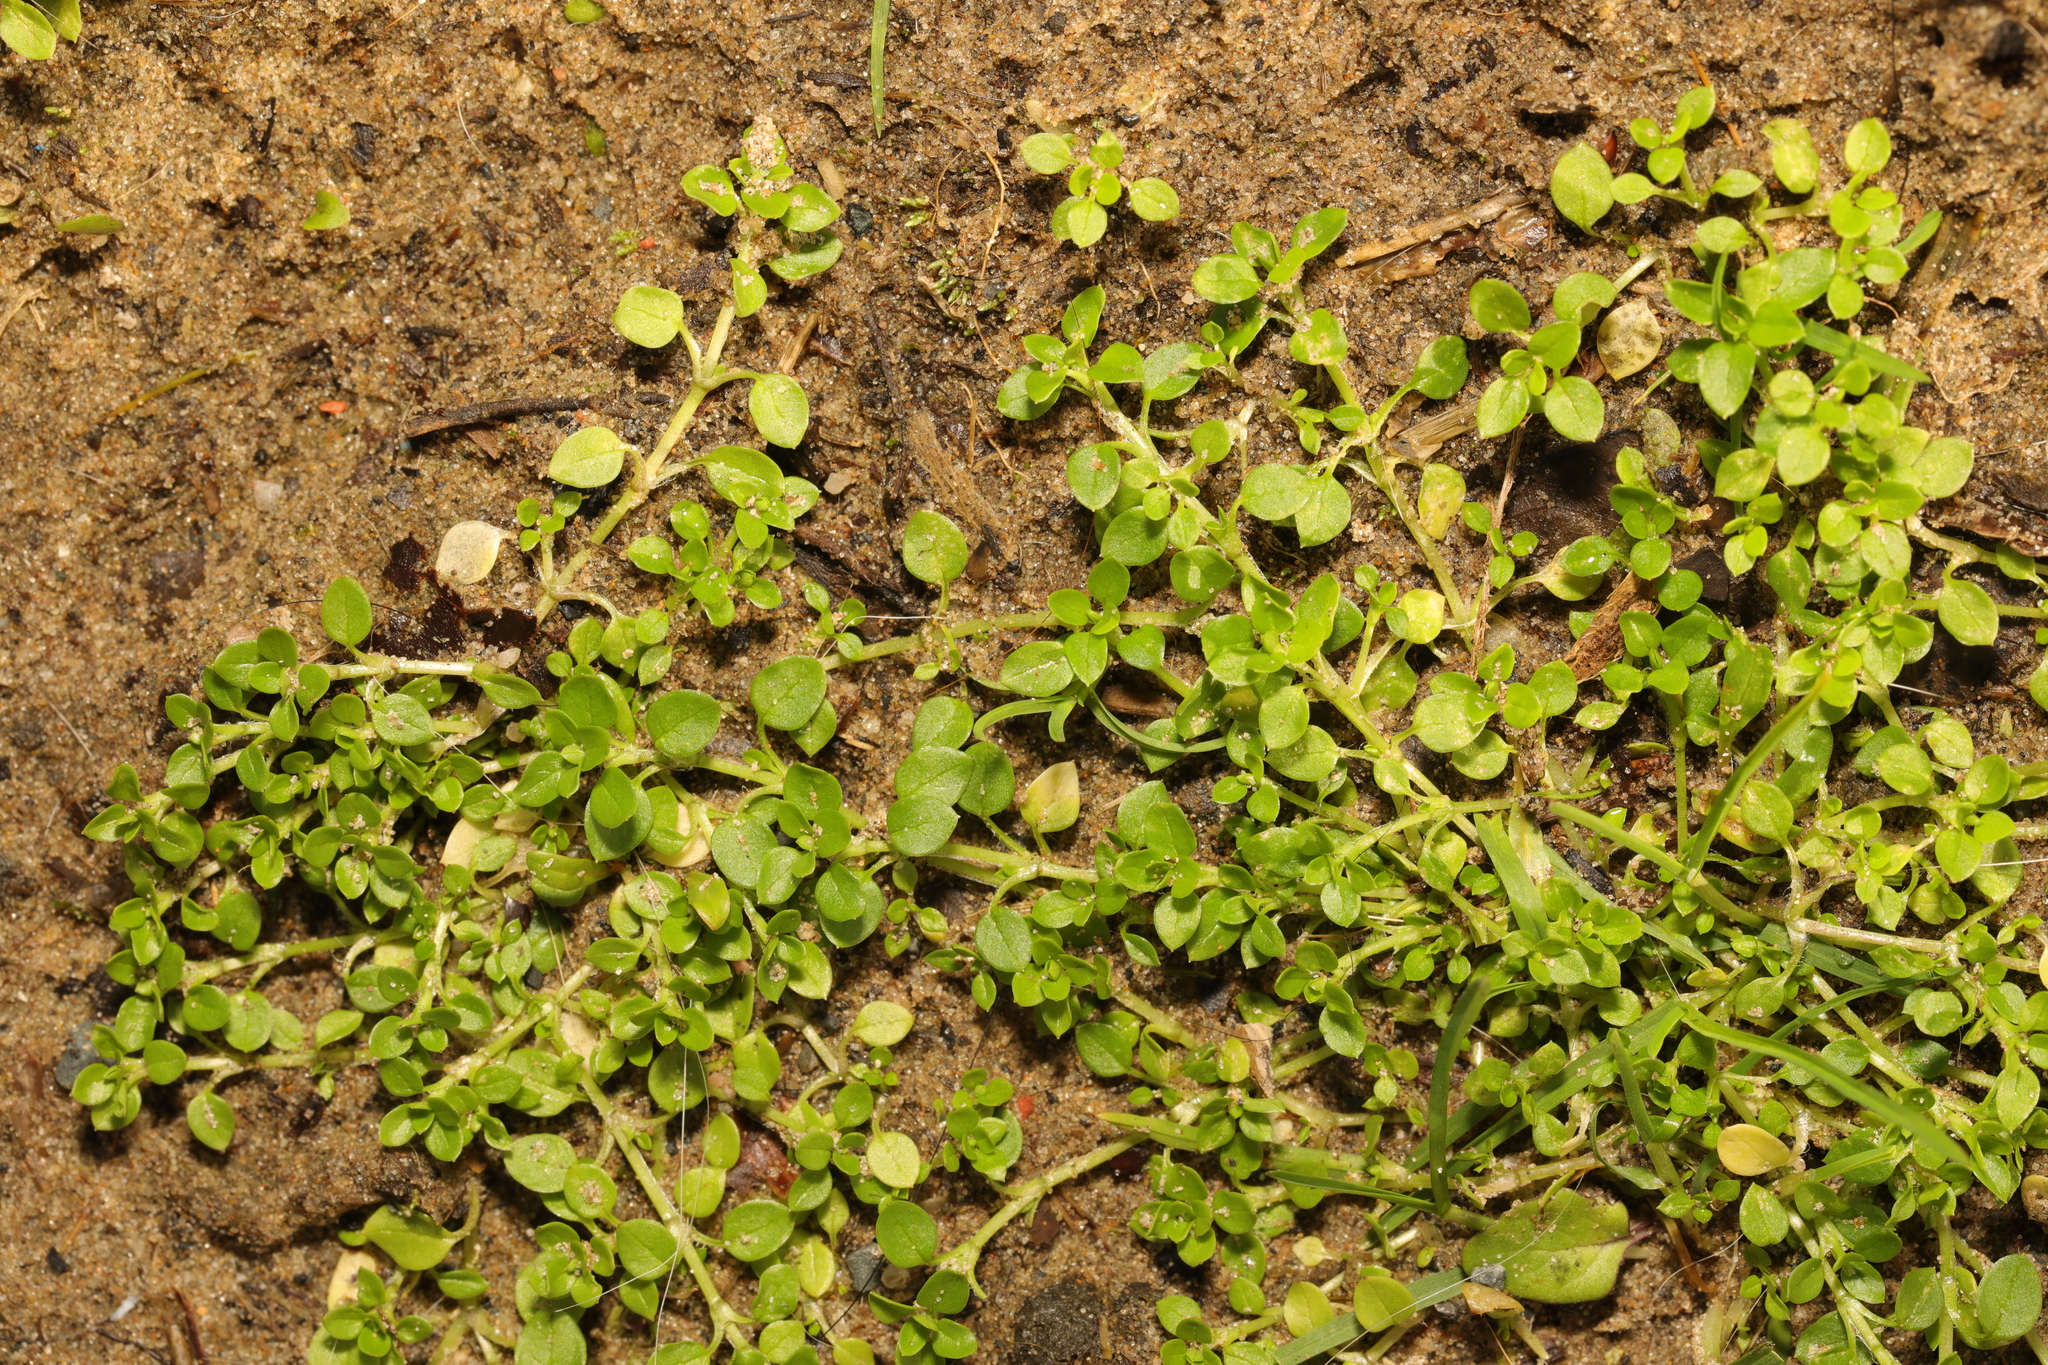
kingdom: Plantae
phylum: Tracheophyta
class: Magnoliopsida
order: Caryophyllales
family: Caryophyllaceae
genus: Stellaria
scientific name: Stellaria apetala
